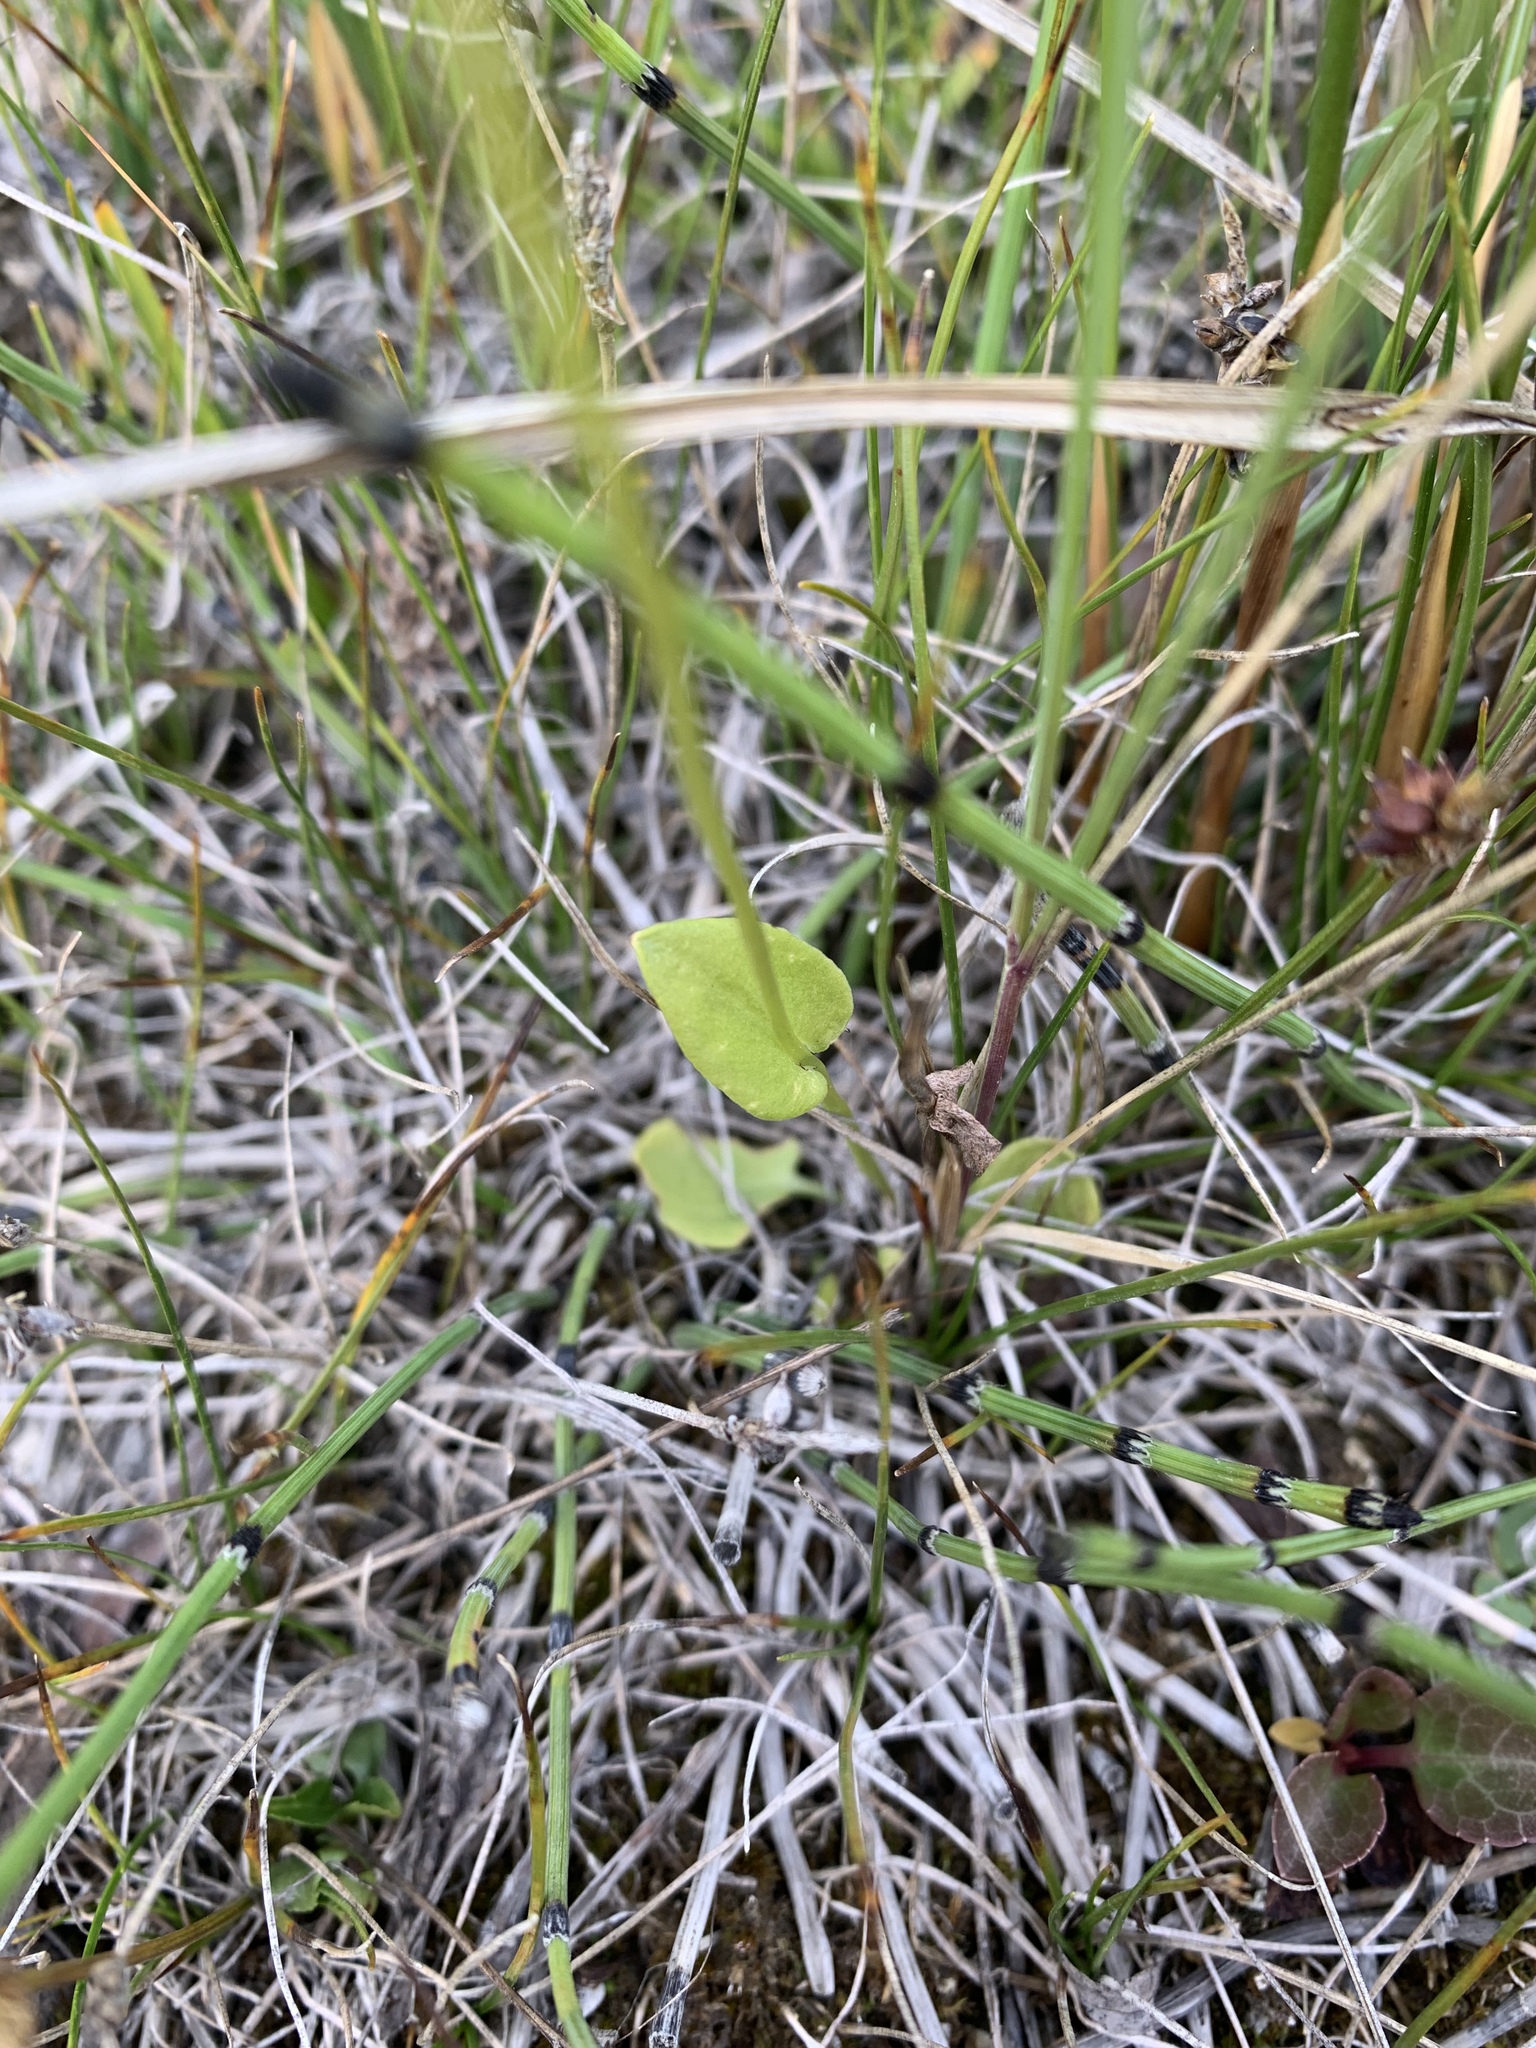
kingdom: Plantae
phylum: Tracheophyta
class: Magnoliopsida
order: Celastrales
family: Parnassiaceae
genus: Parnassia
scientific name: Parnassia palustris
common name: Grass-of-parnassus
